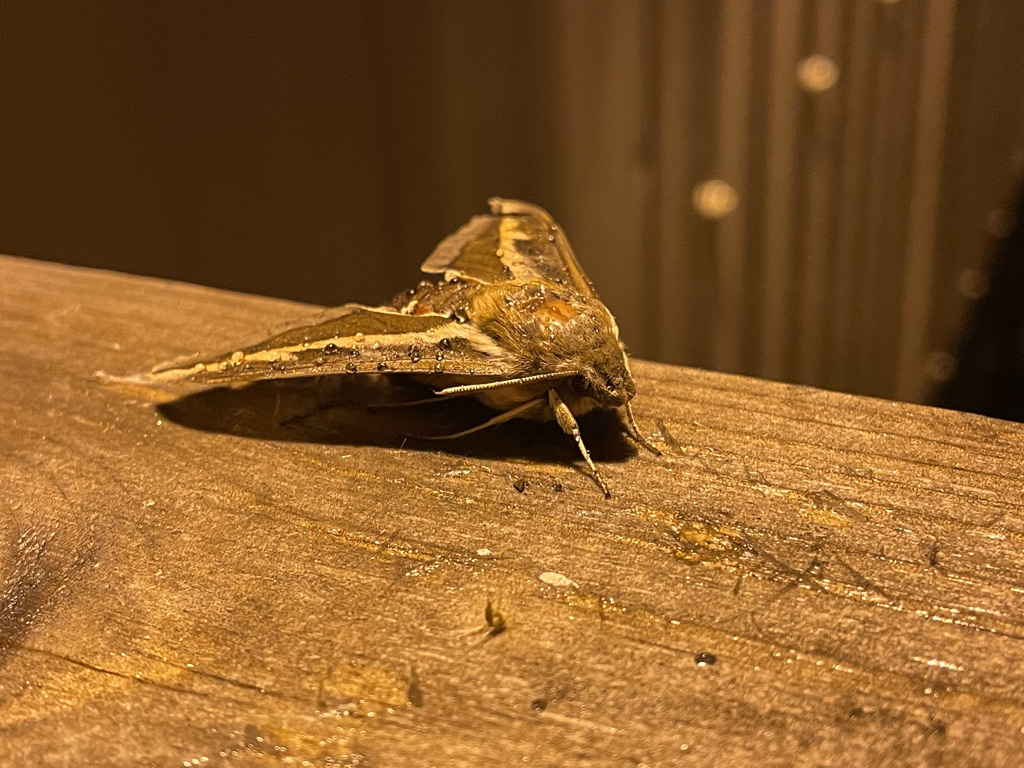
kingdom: Animalia
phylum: Arthropoda
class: Insecta
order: Lepidoptera
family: Sphingidae
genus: Hyles
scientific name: Hyles gallii
